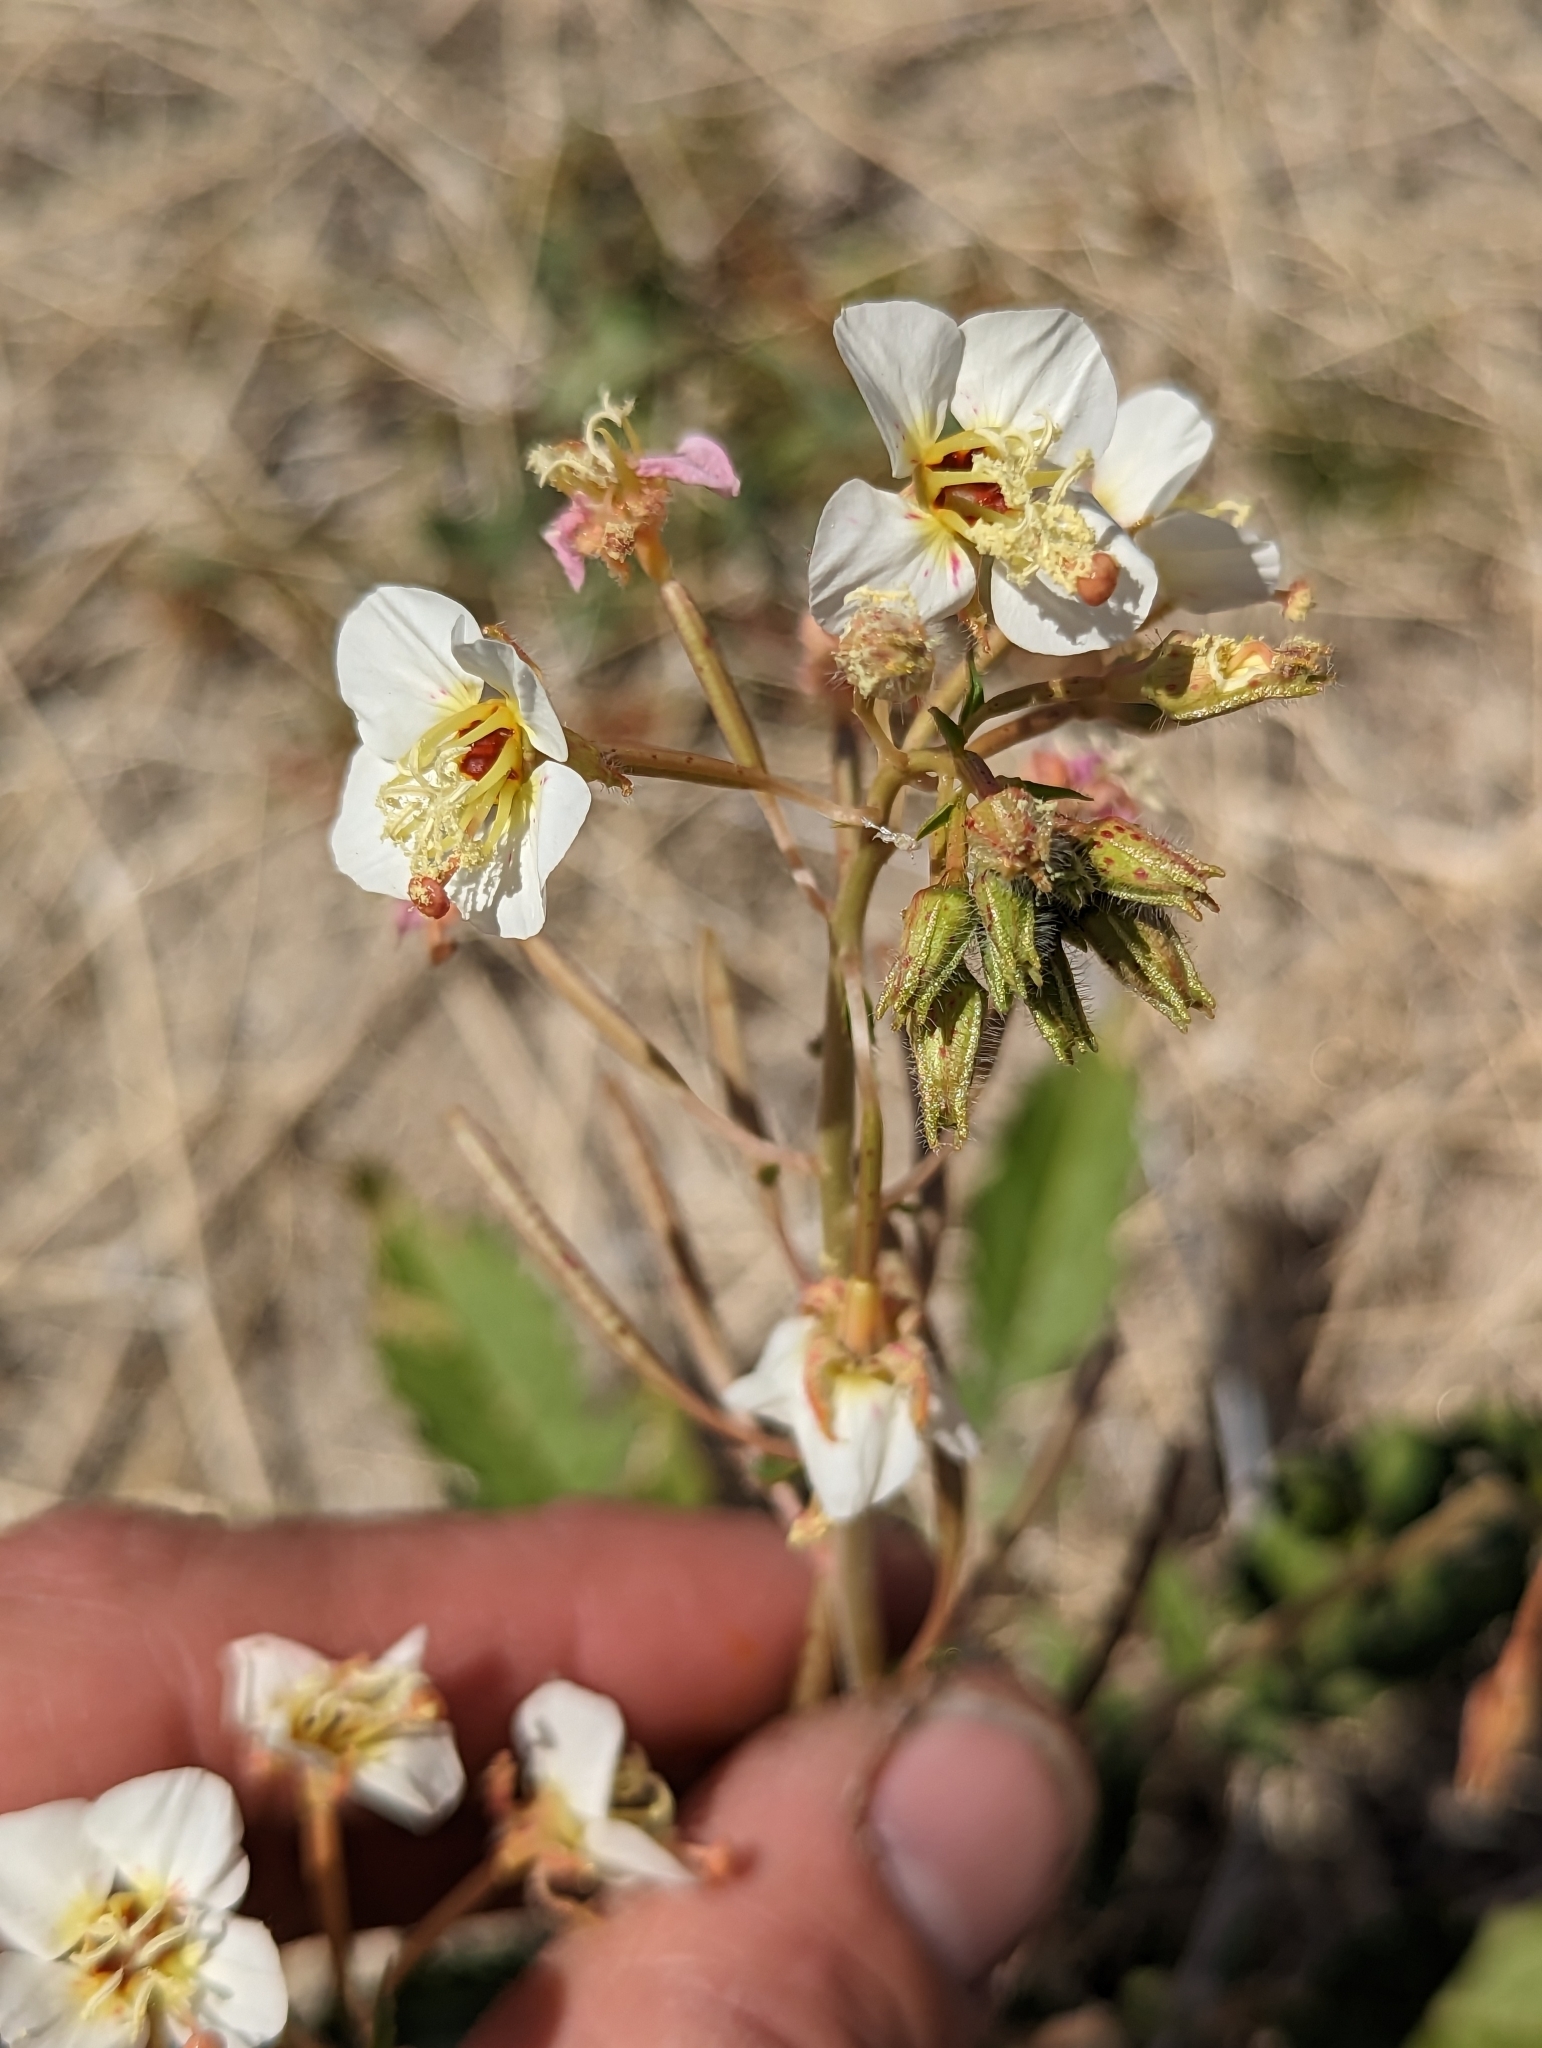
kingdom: Plantae
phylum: Tracheophyta
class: Magnoliopsida
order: Myrtales
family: Onagraceae
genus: Chylismia
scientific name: Chylismia claviformis
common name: Browneyes
